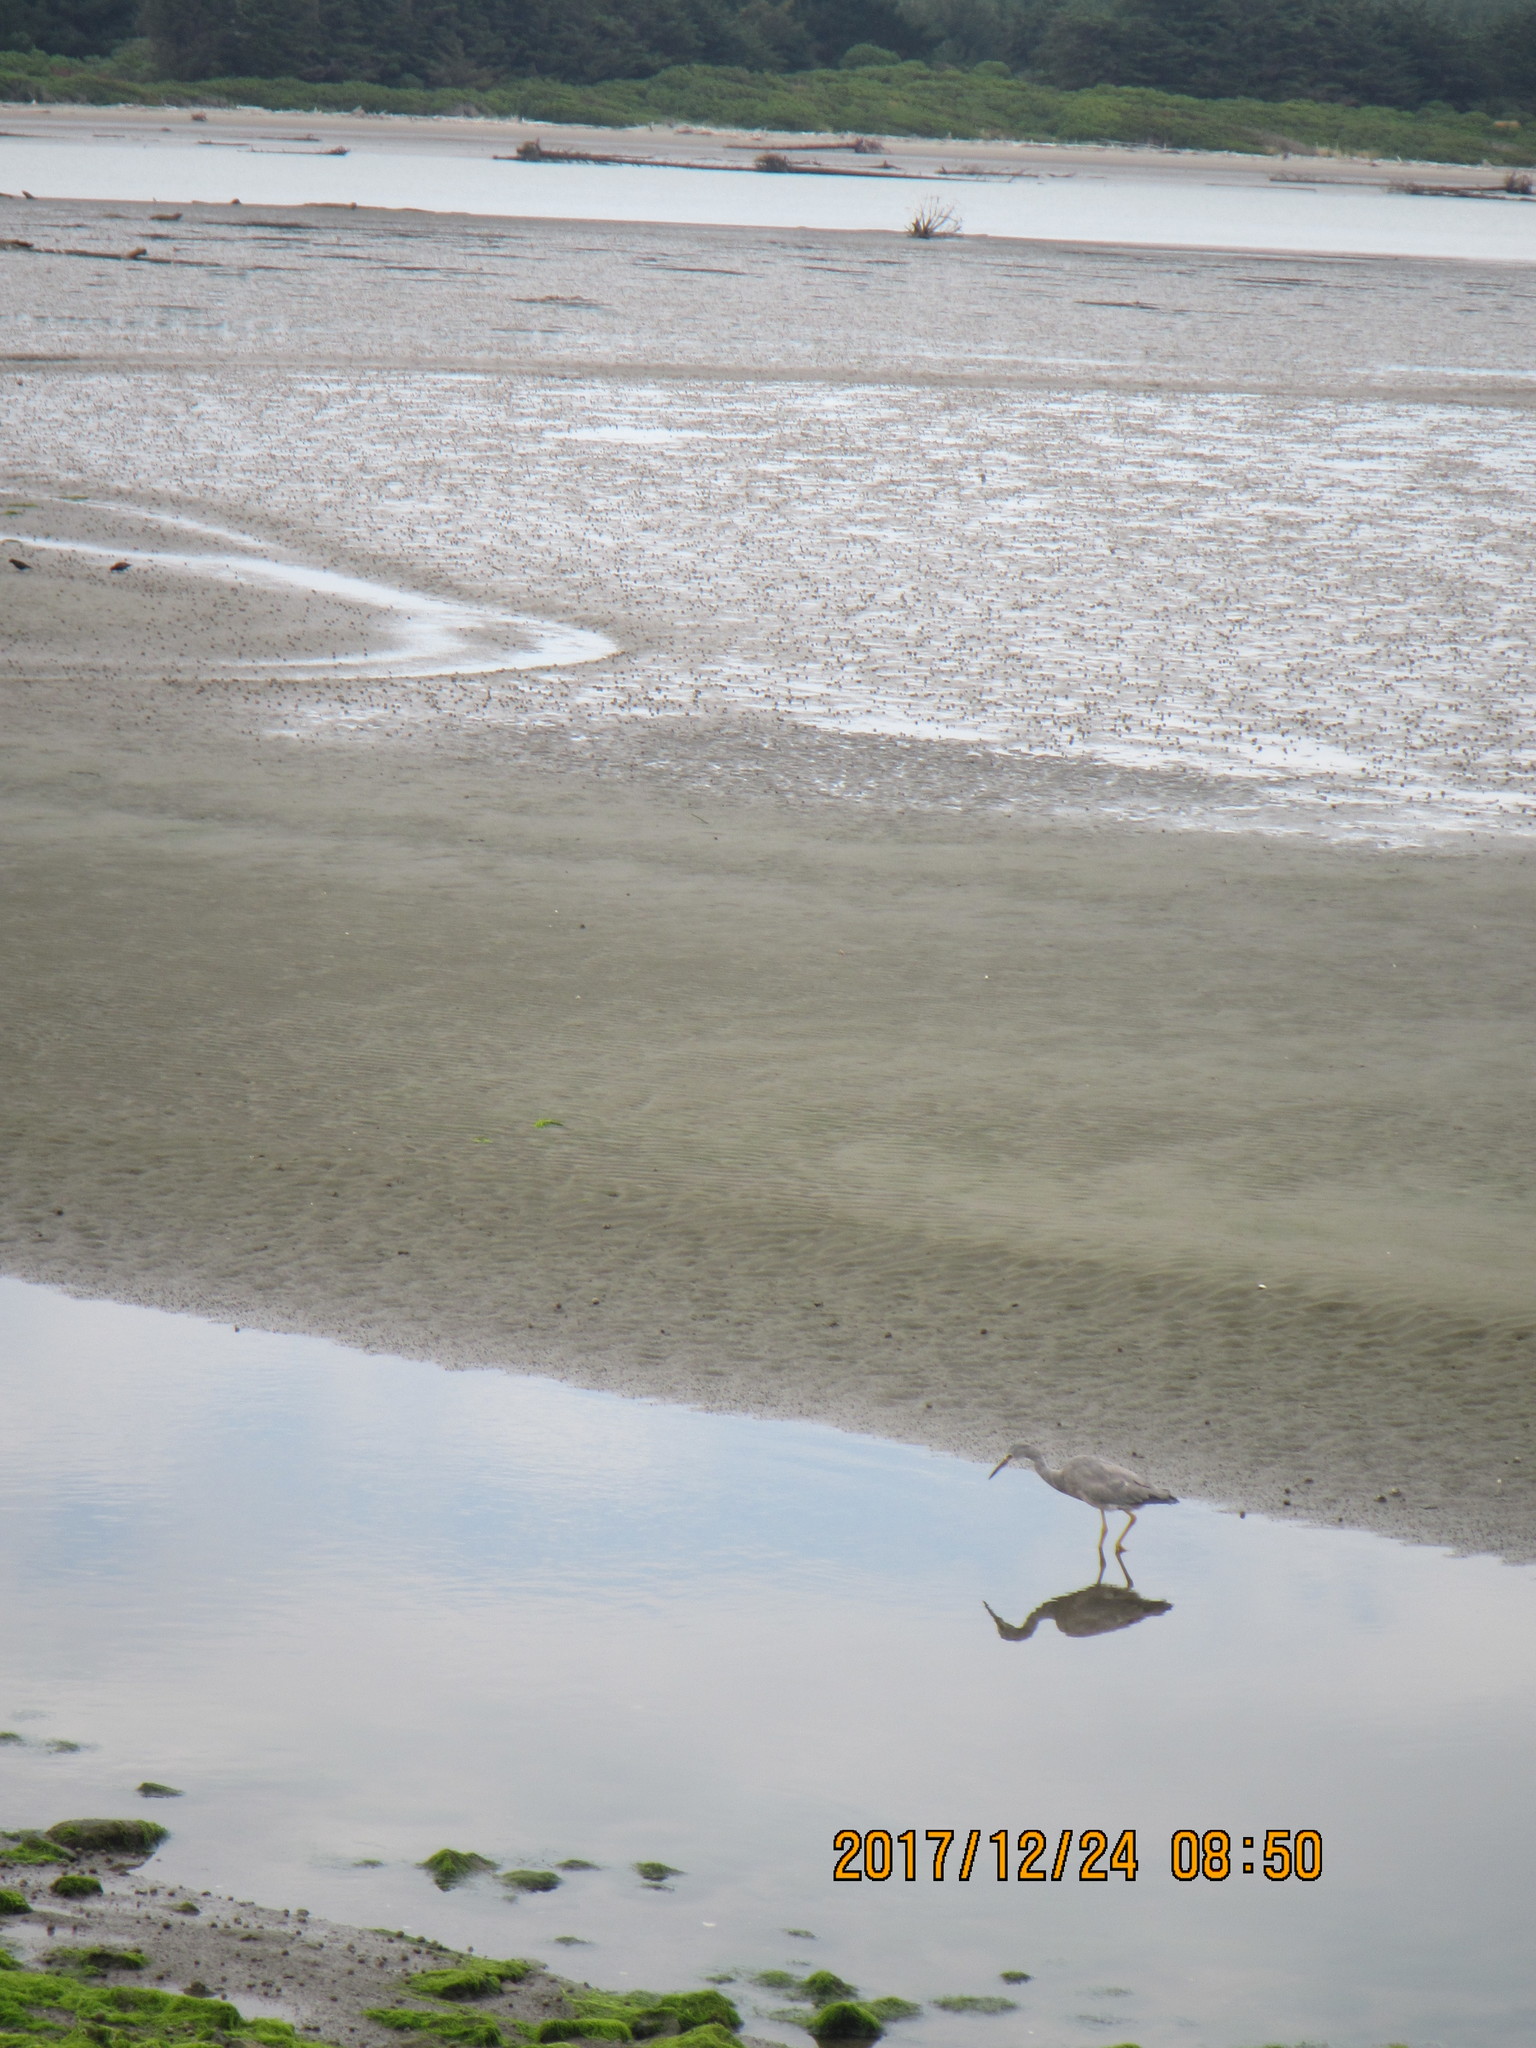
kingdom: Animalia
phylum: Chordata
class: Aves
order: Pelecaniformes
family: Ardeidae
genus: Egretta
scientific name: Egretta novaehollandiae
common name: White-faced heron
